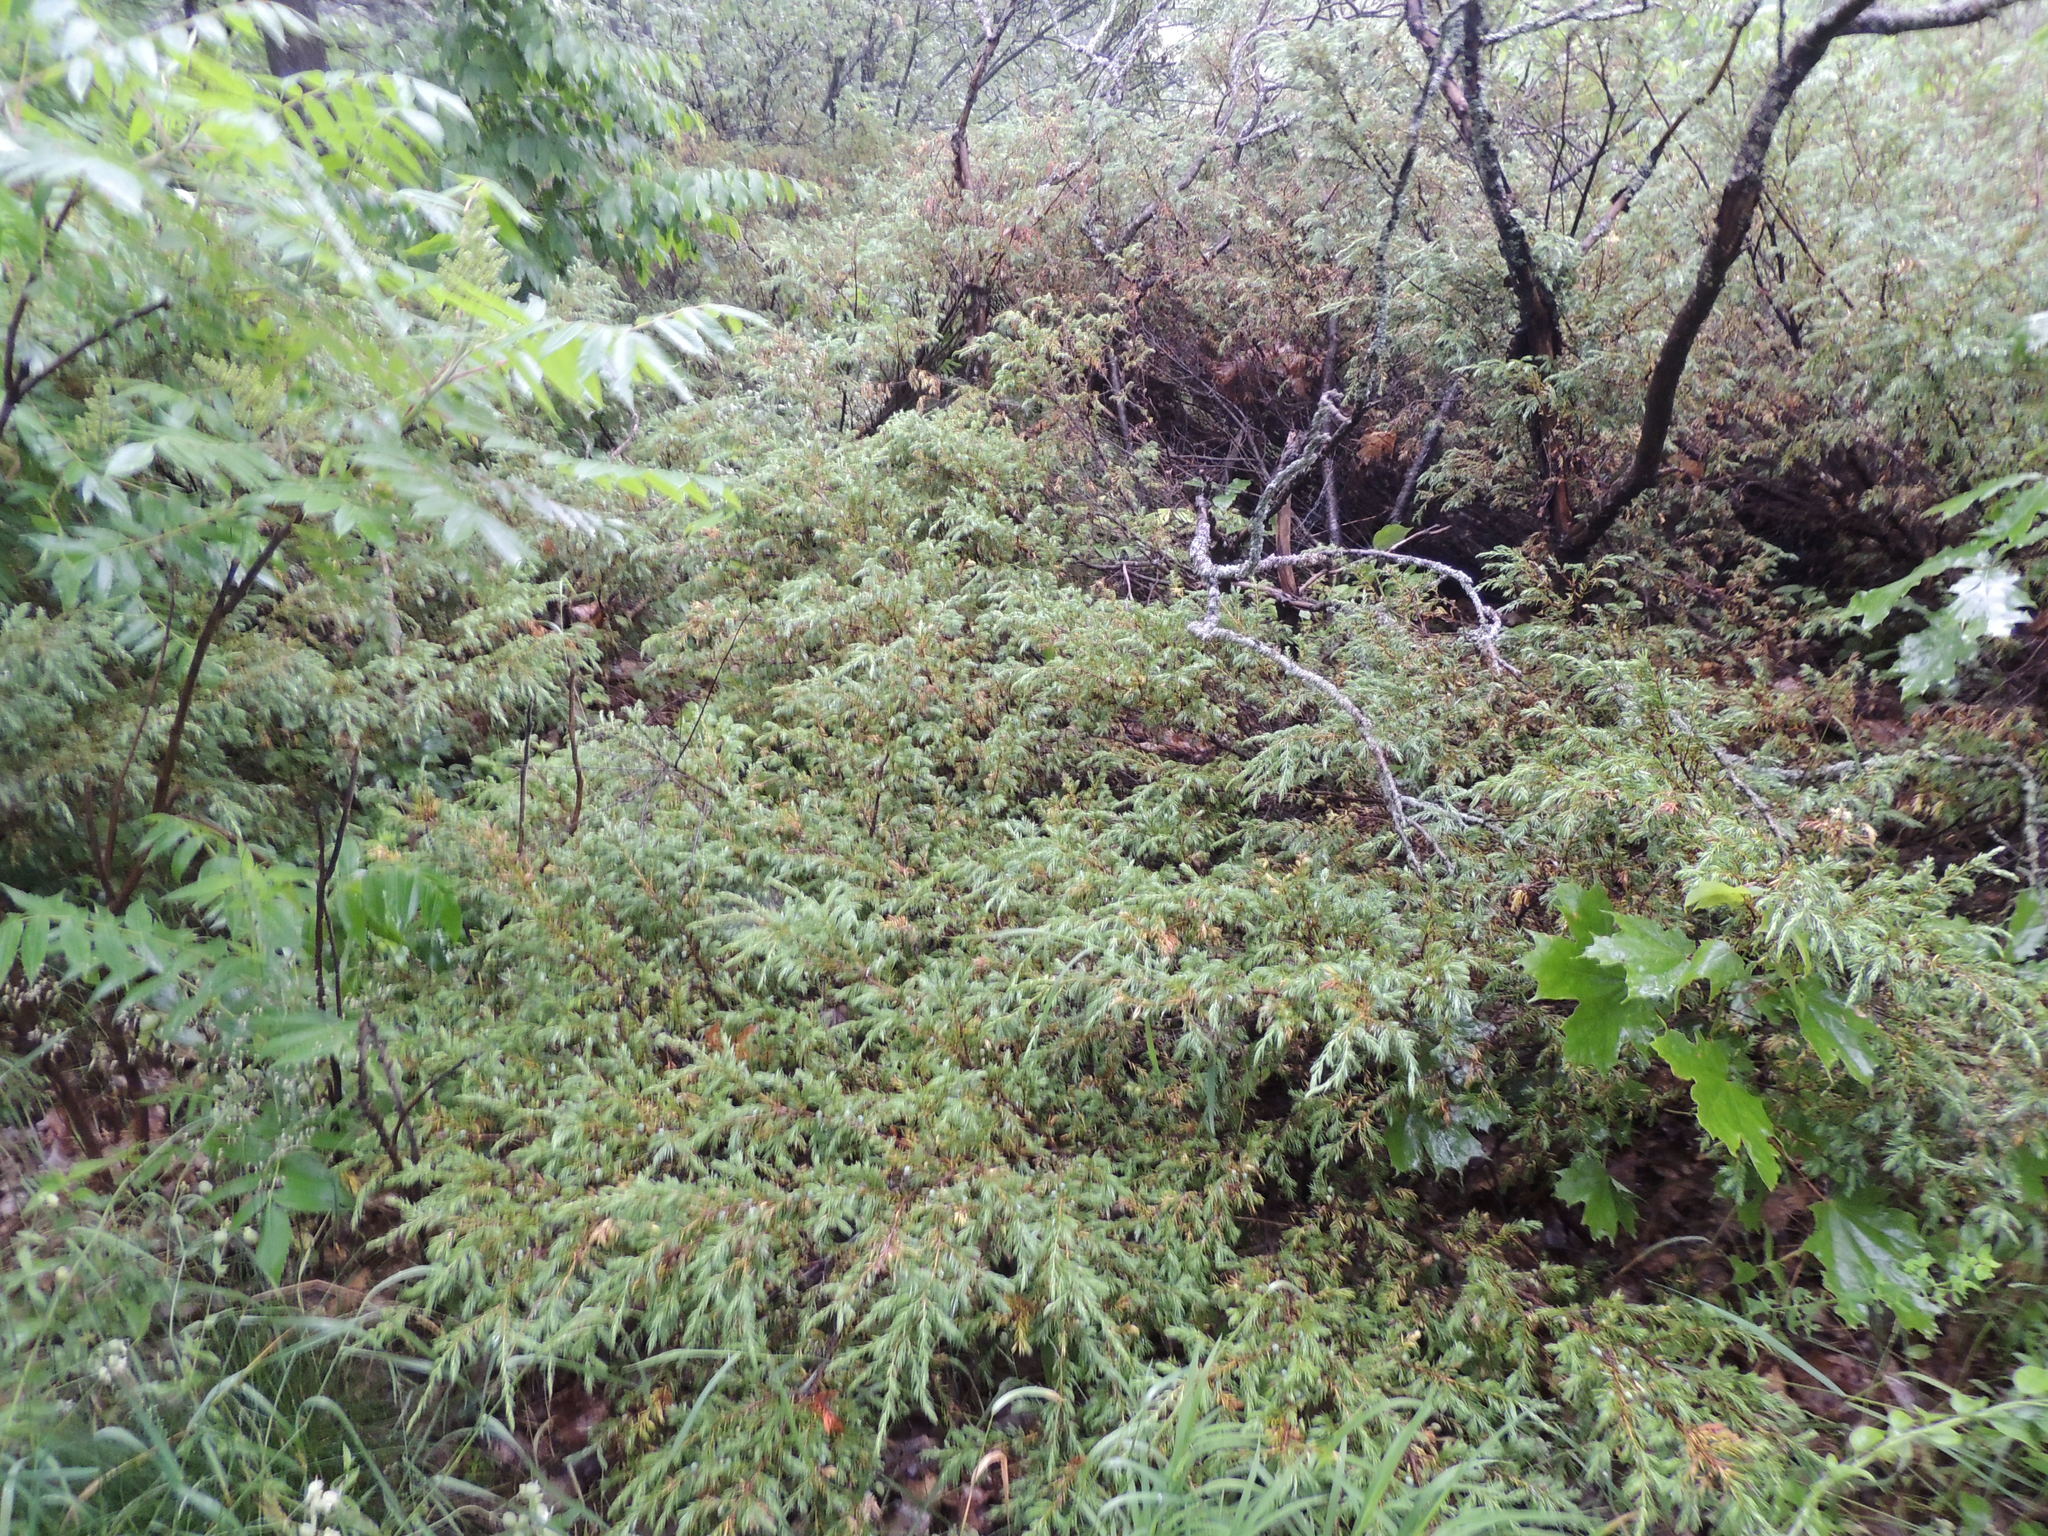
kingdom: Plantae
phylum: Tracheophyta
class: Pinopsida
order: Pinales
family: Cupressaceae
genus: Juniperus
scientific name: Juniperus communis
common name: Common juniper
